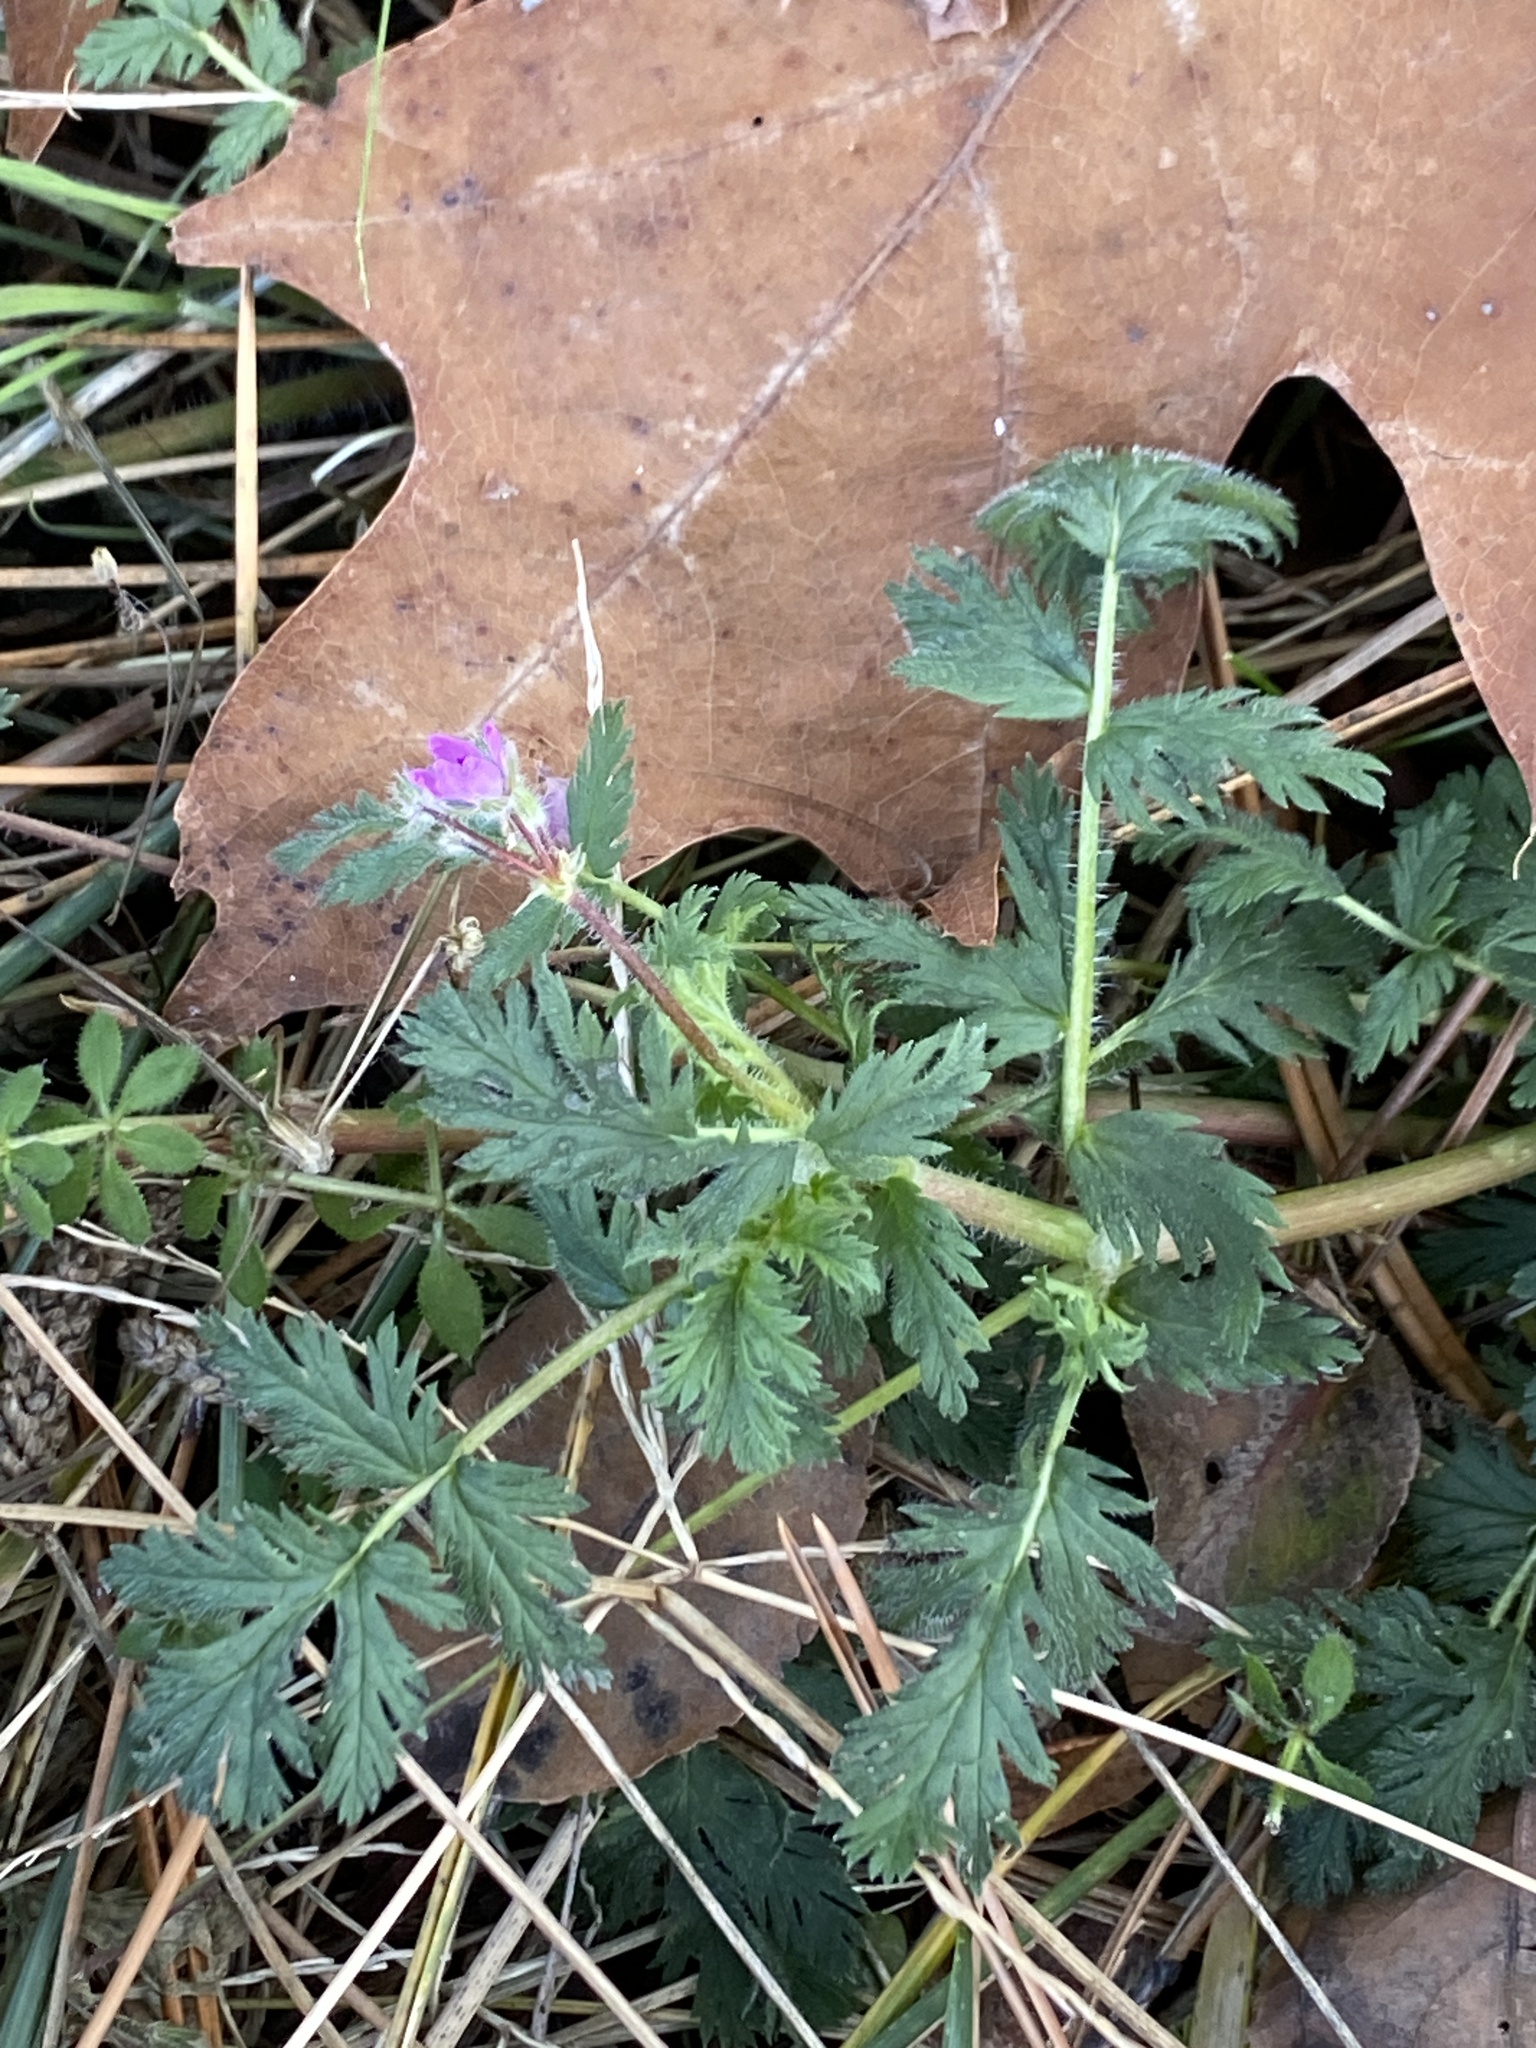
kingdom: Plantae
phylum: Tracheophyta
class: Magnoliopsida
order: Geraniales
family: Geraniaceae
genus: Erodium
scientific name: Erodium cicutarium
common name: Common stork's-bill
